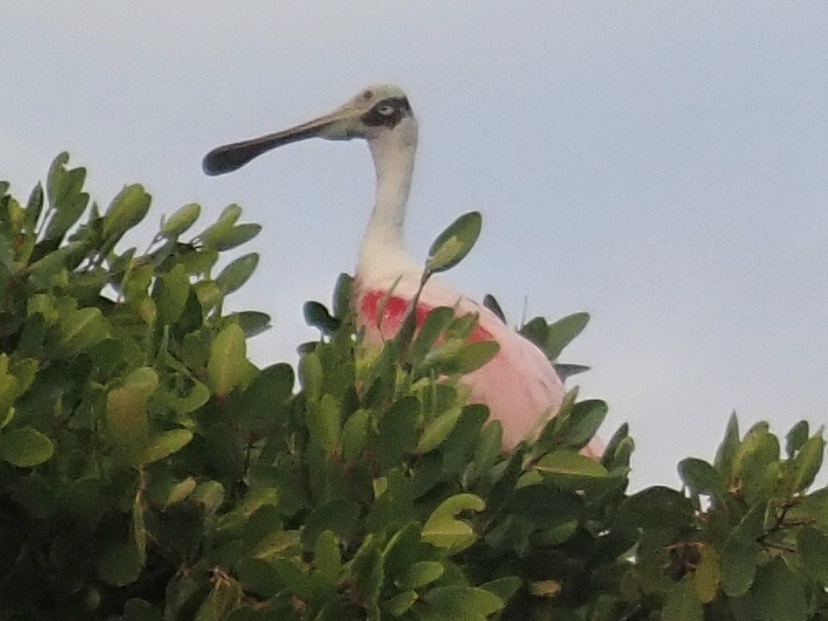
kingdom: Animalia
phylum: Chordata
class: Aves
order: Pelecaniformes
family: Threskiornithidae
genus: Platalea
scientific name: Platalea ajaja
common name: Roseate spoonbill
